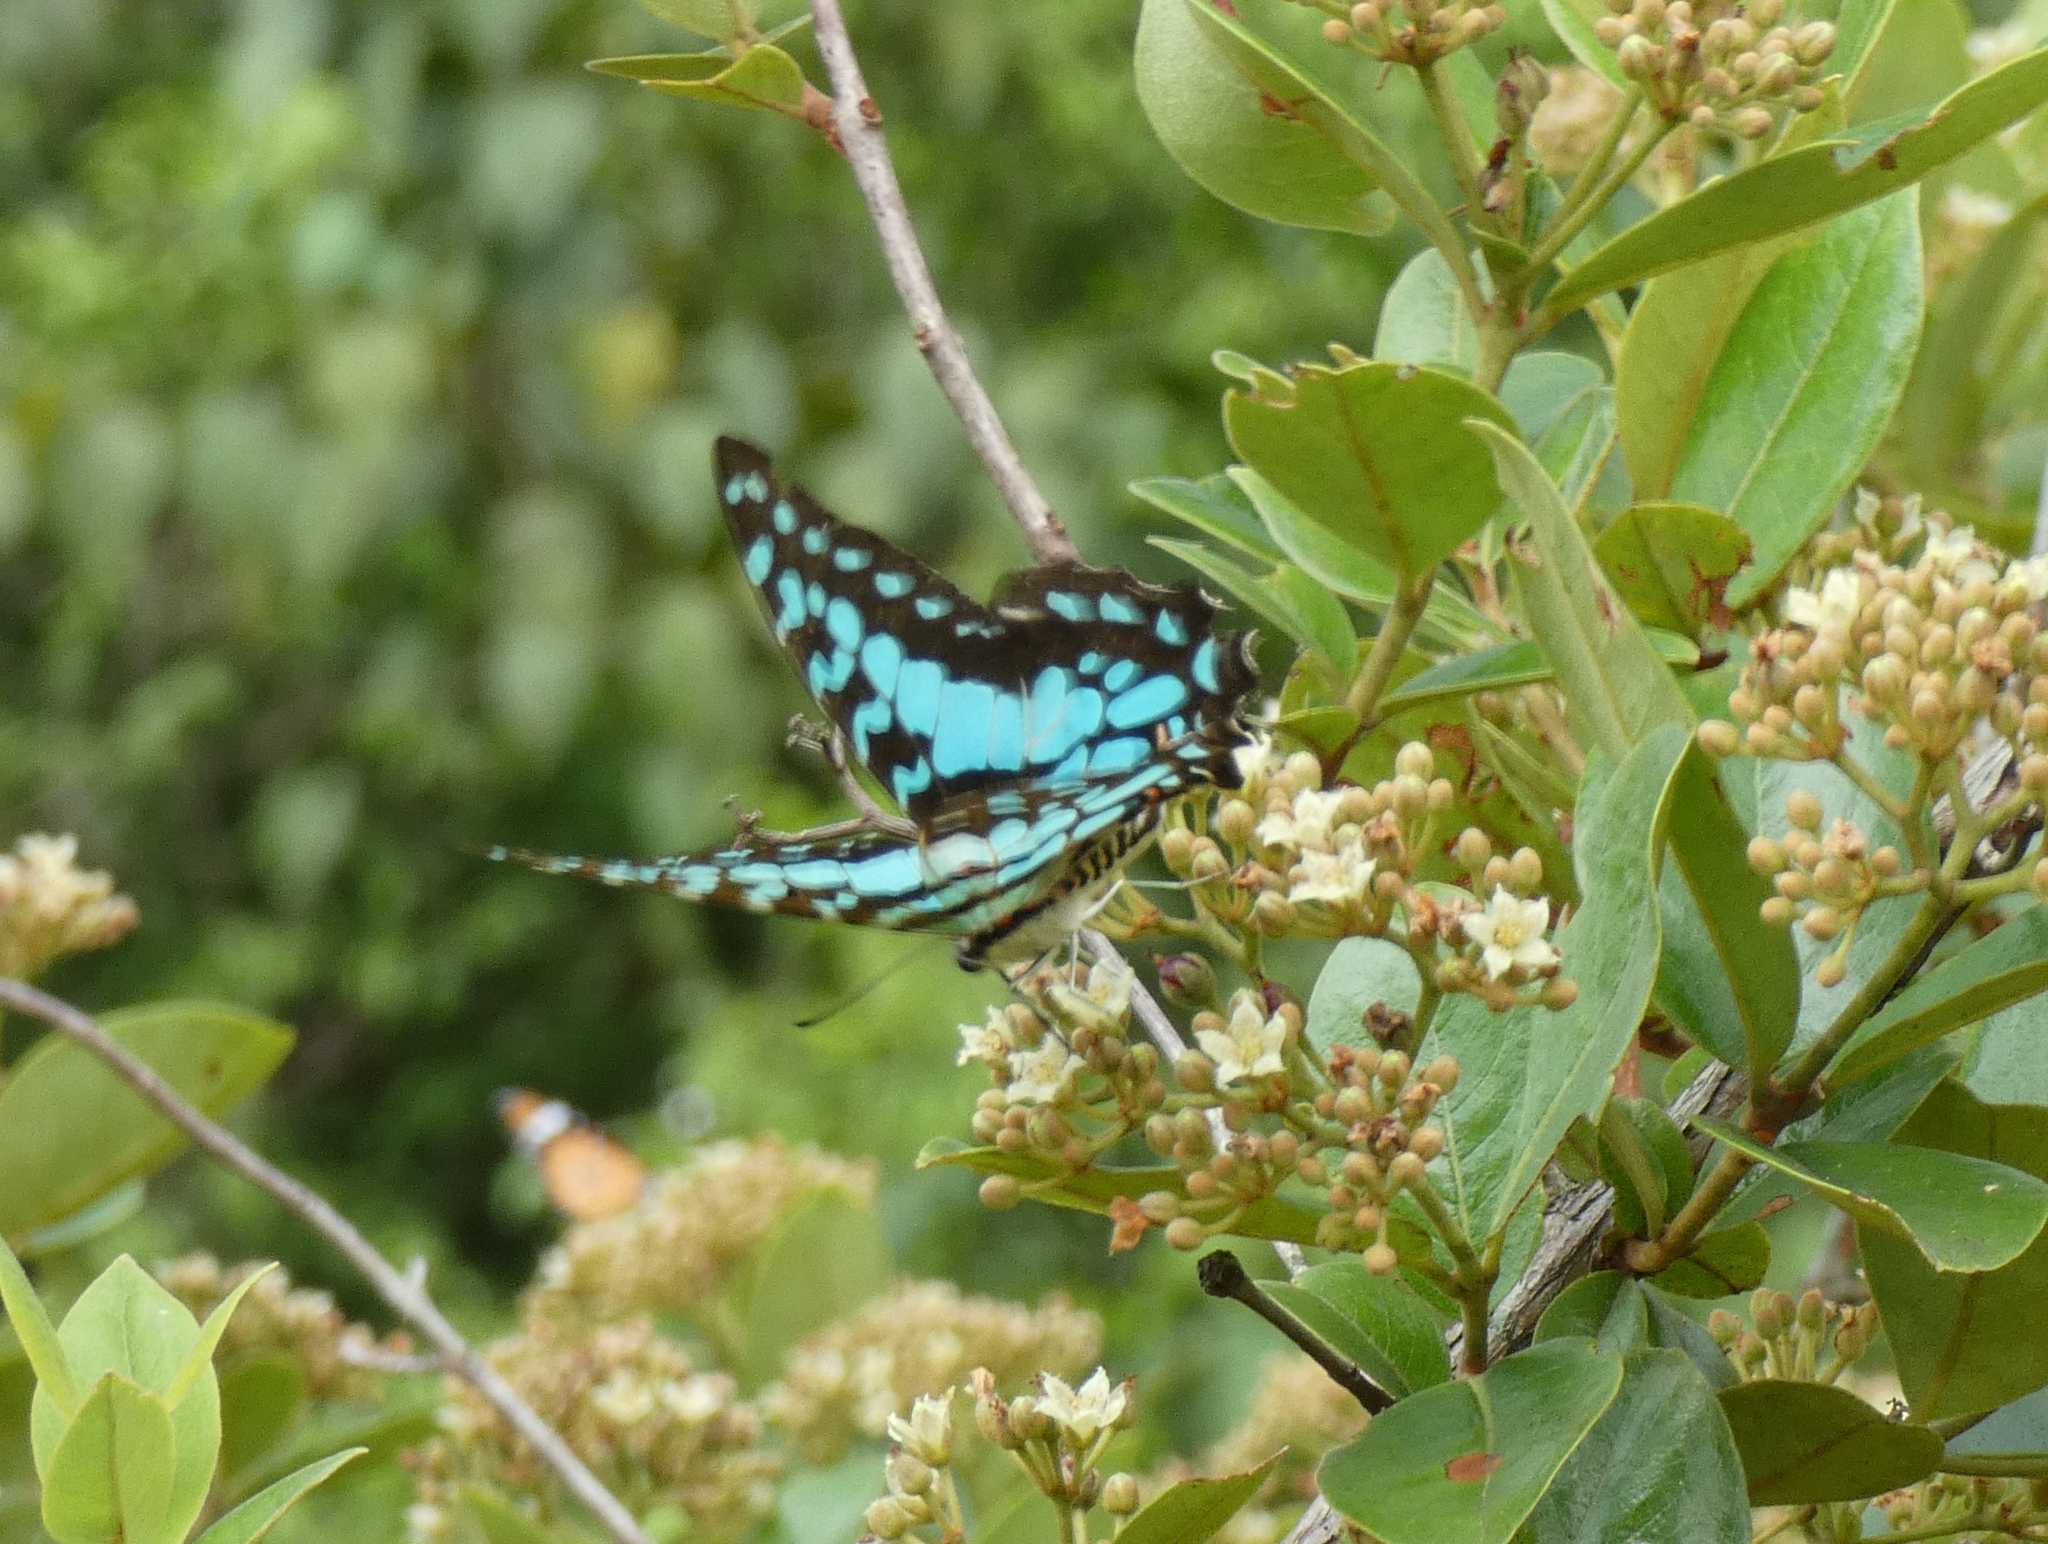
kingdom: Animalia
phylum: Arthropoda
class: Insecta
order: Lepidoptera
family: Papilionidae
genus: Graphium
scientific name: Graphium antheus
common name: Large striped swordtail
